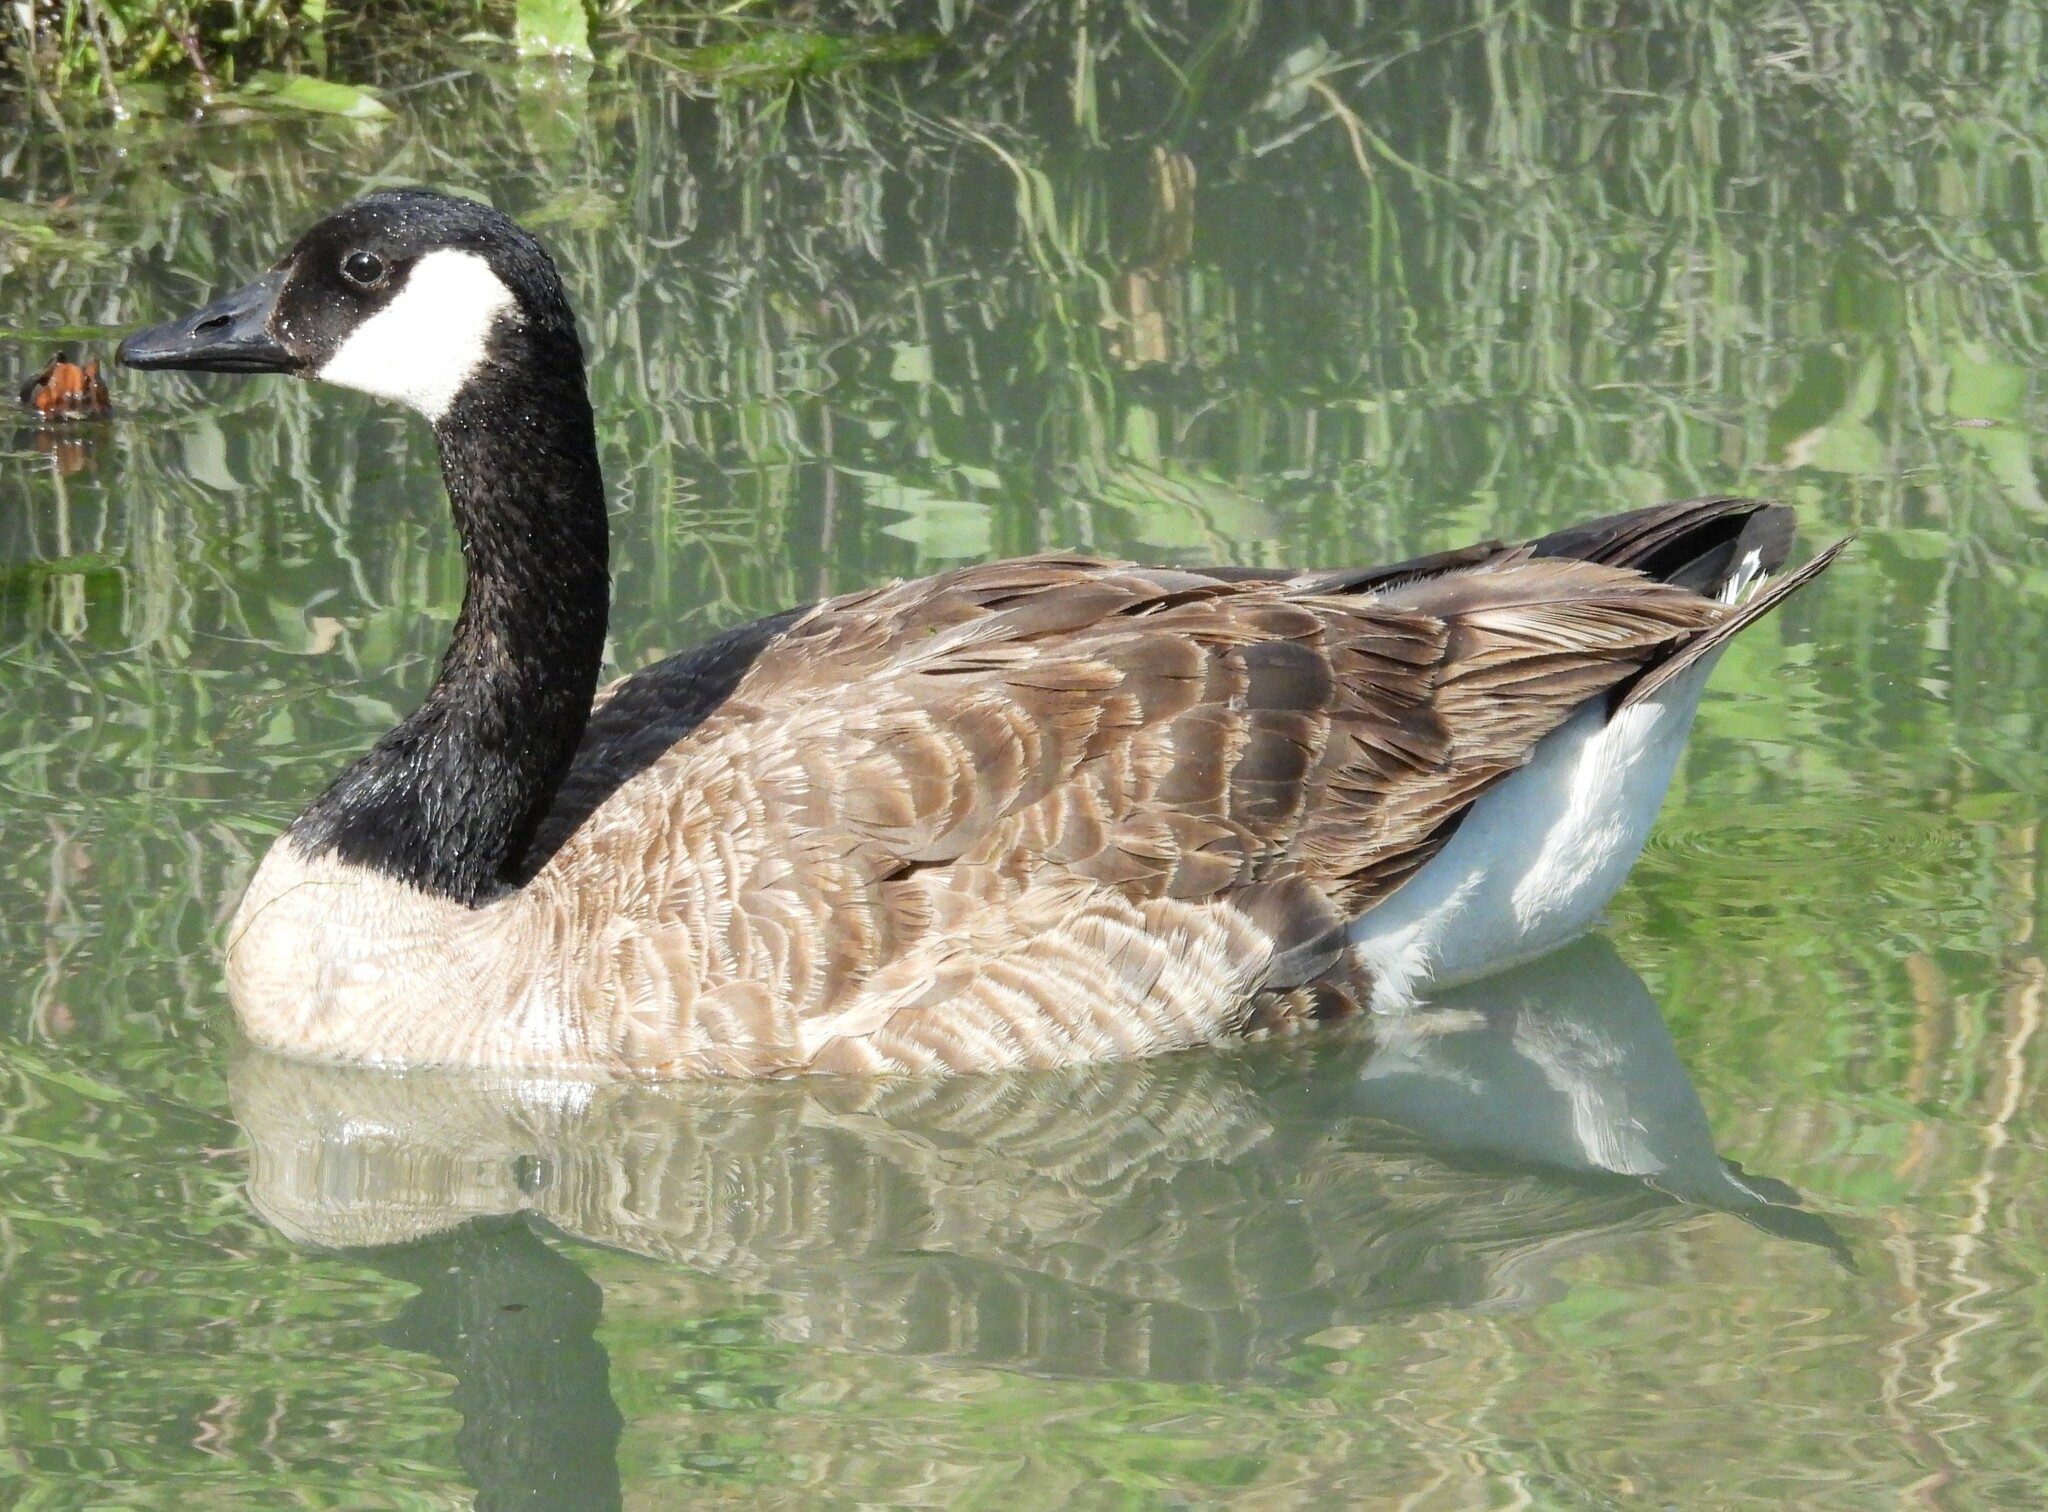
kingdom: Animalia
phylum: Chordata
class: Aves
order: Anseriformes
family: Anatidae
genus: Branta
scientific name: Branta canadensis
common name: Canada goose
